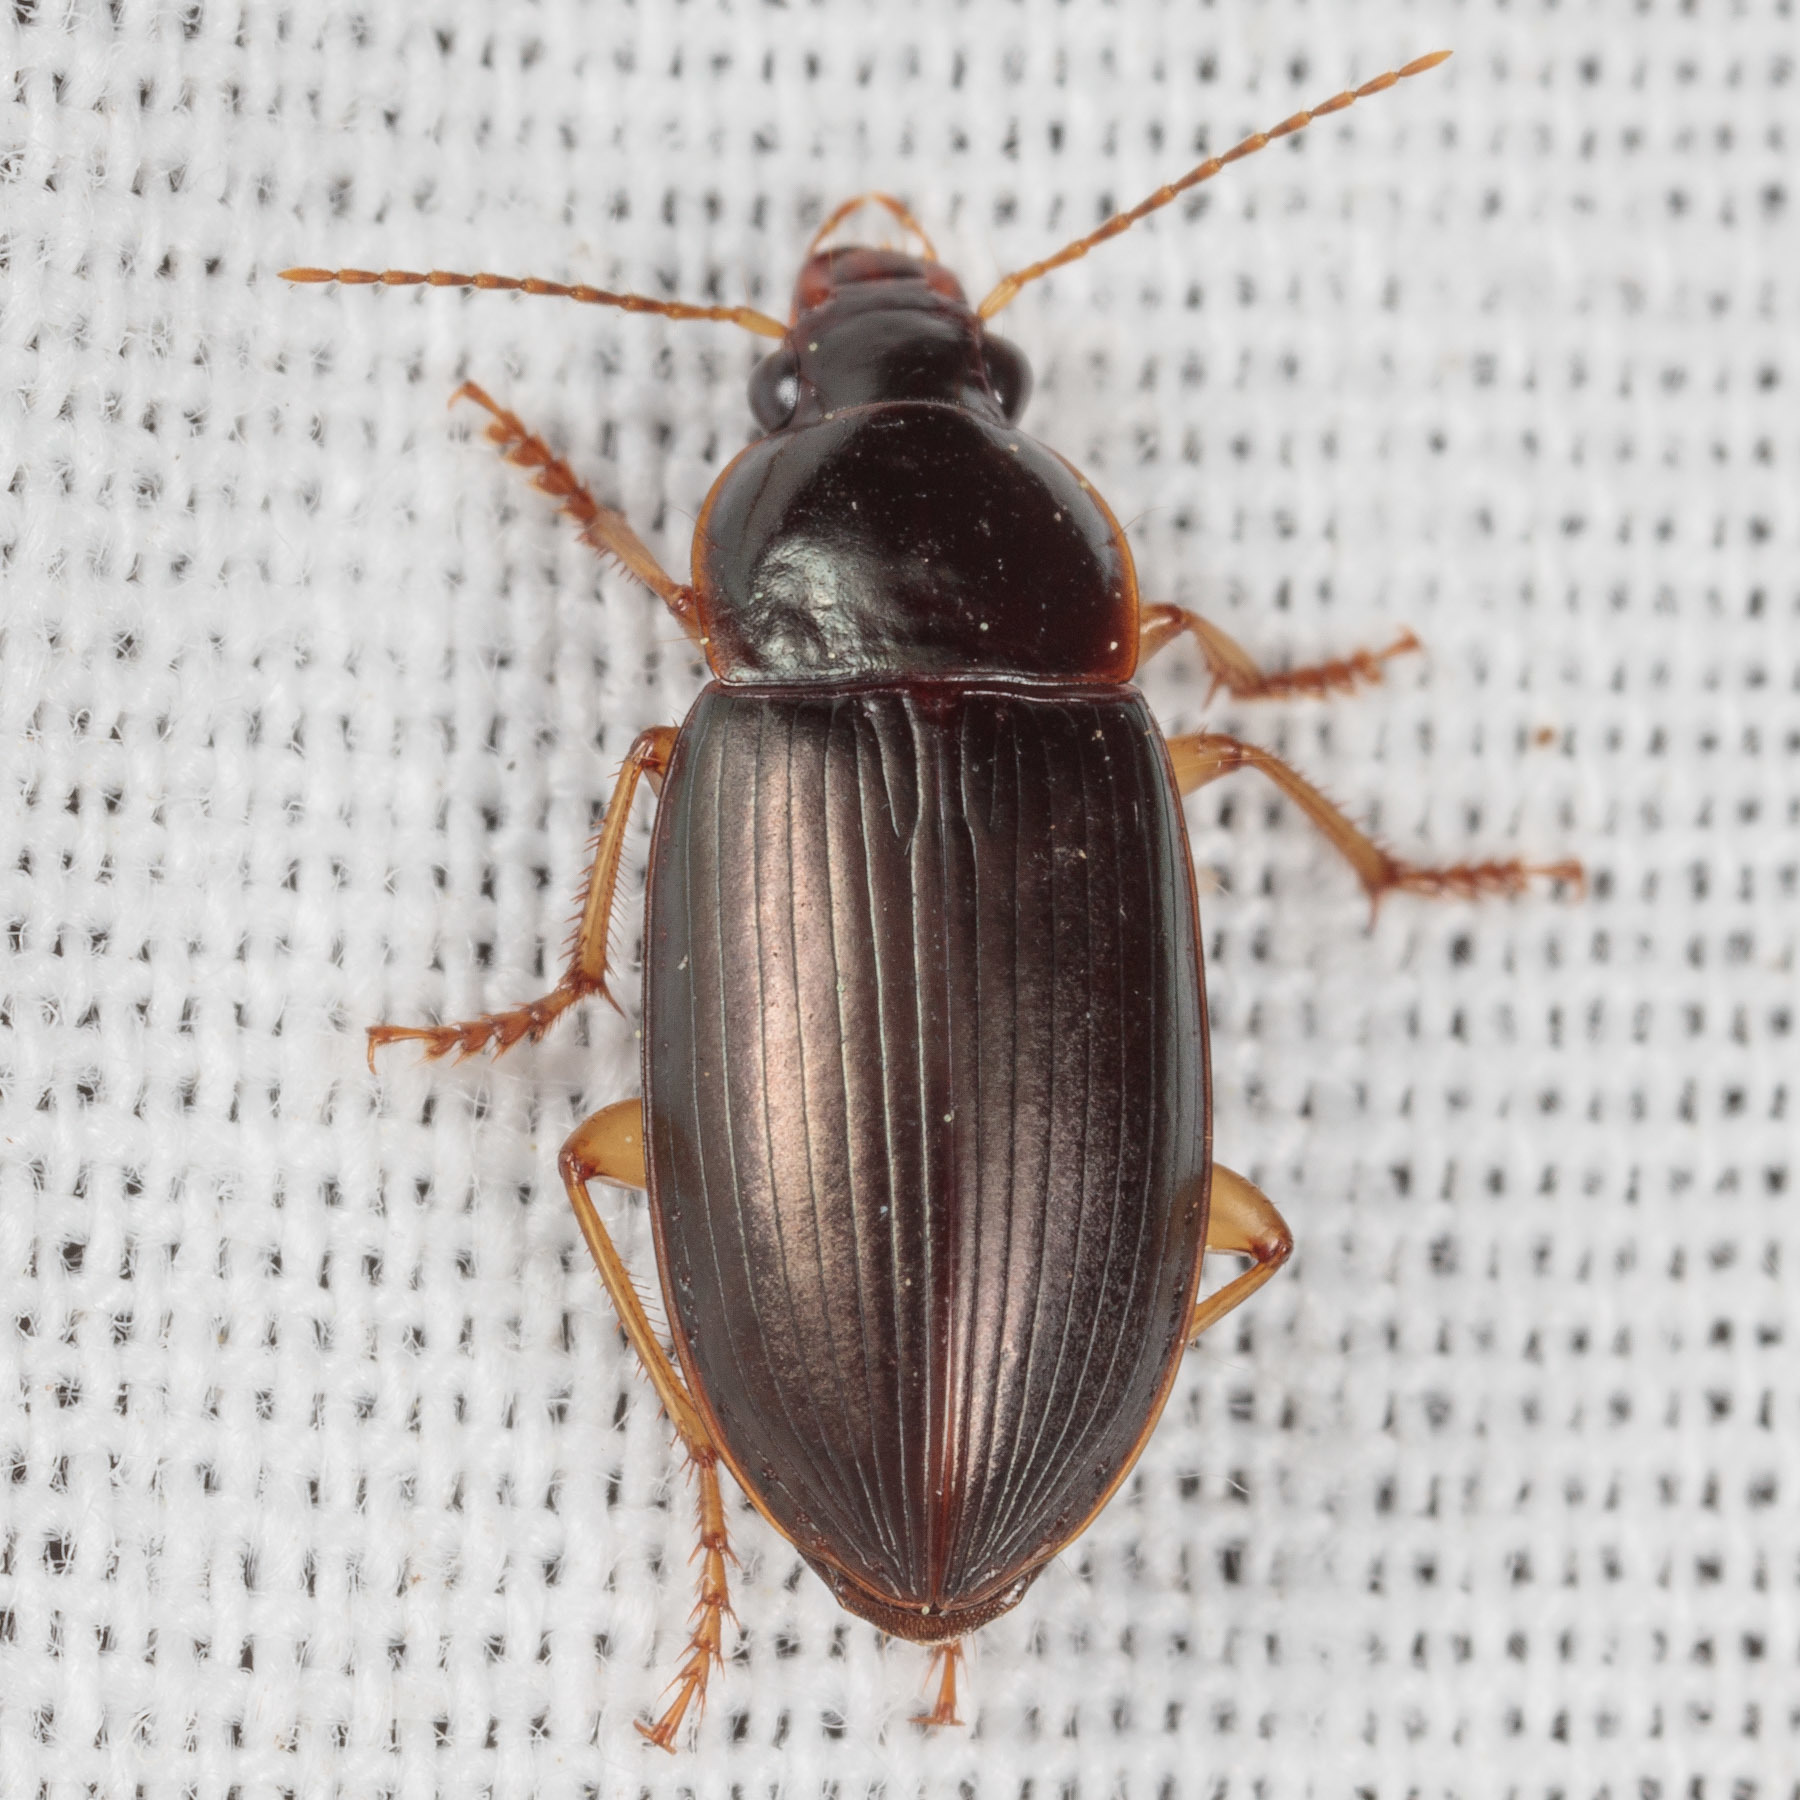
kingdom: Animalia
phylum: Arthropoda
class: Insecta
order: Coleoptera
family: Carabidae
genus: Notiobia
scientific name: Notiobia terminata
